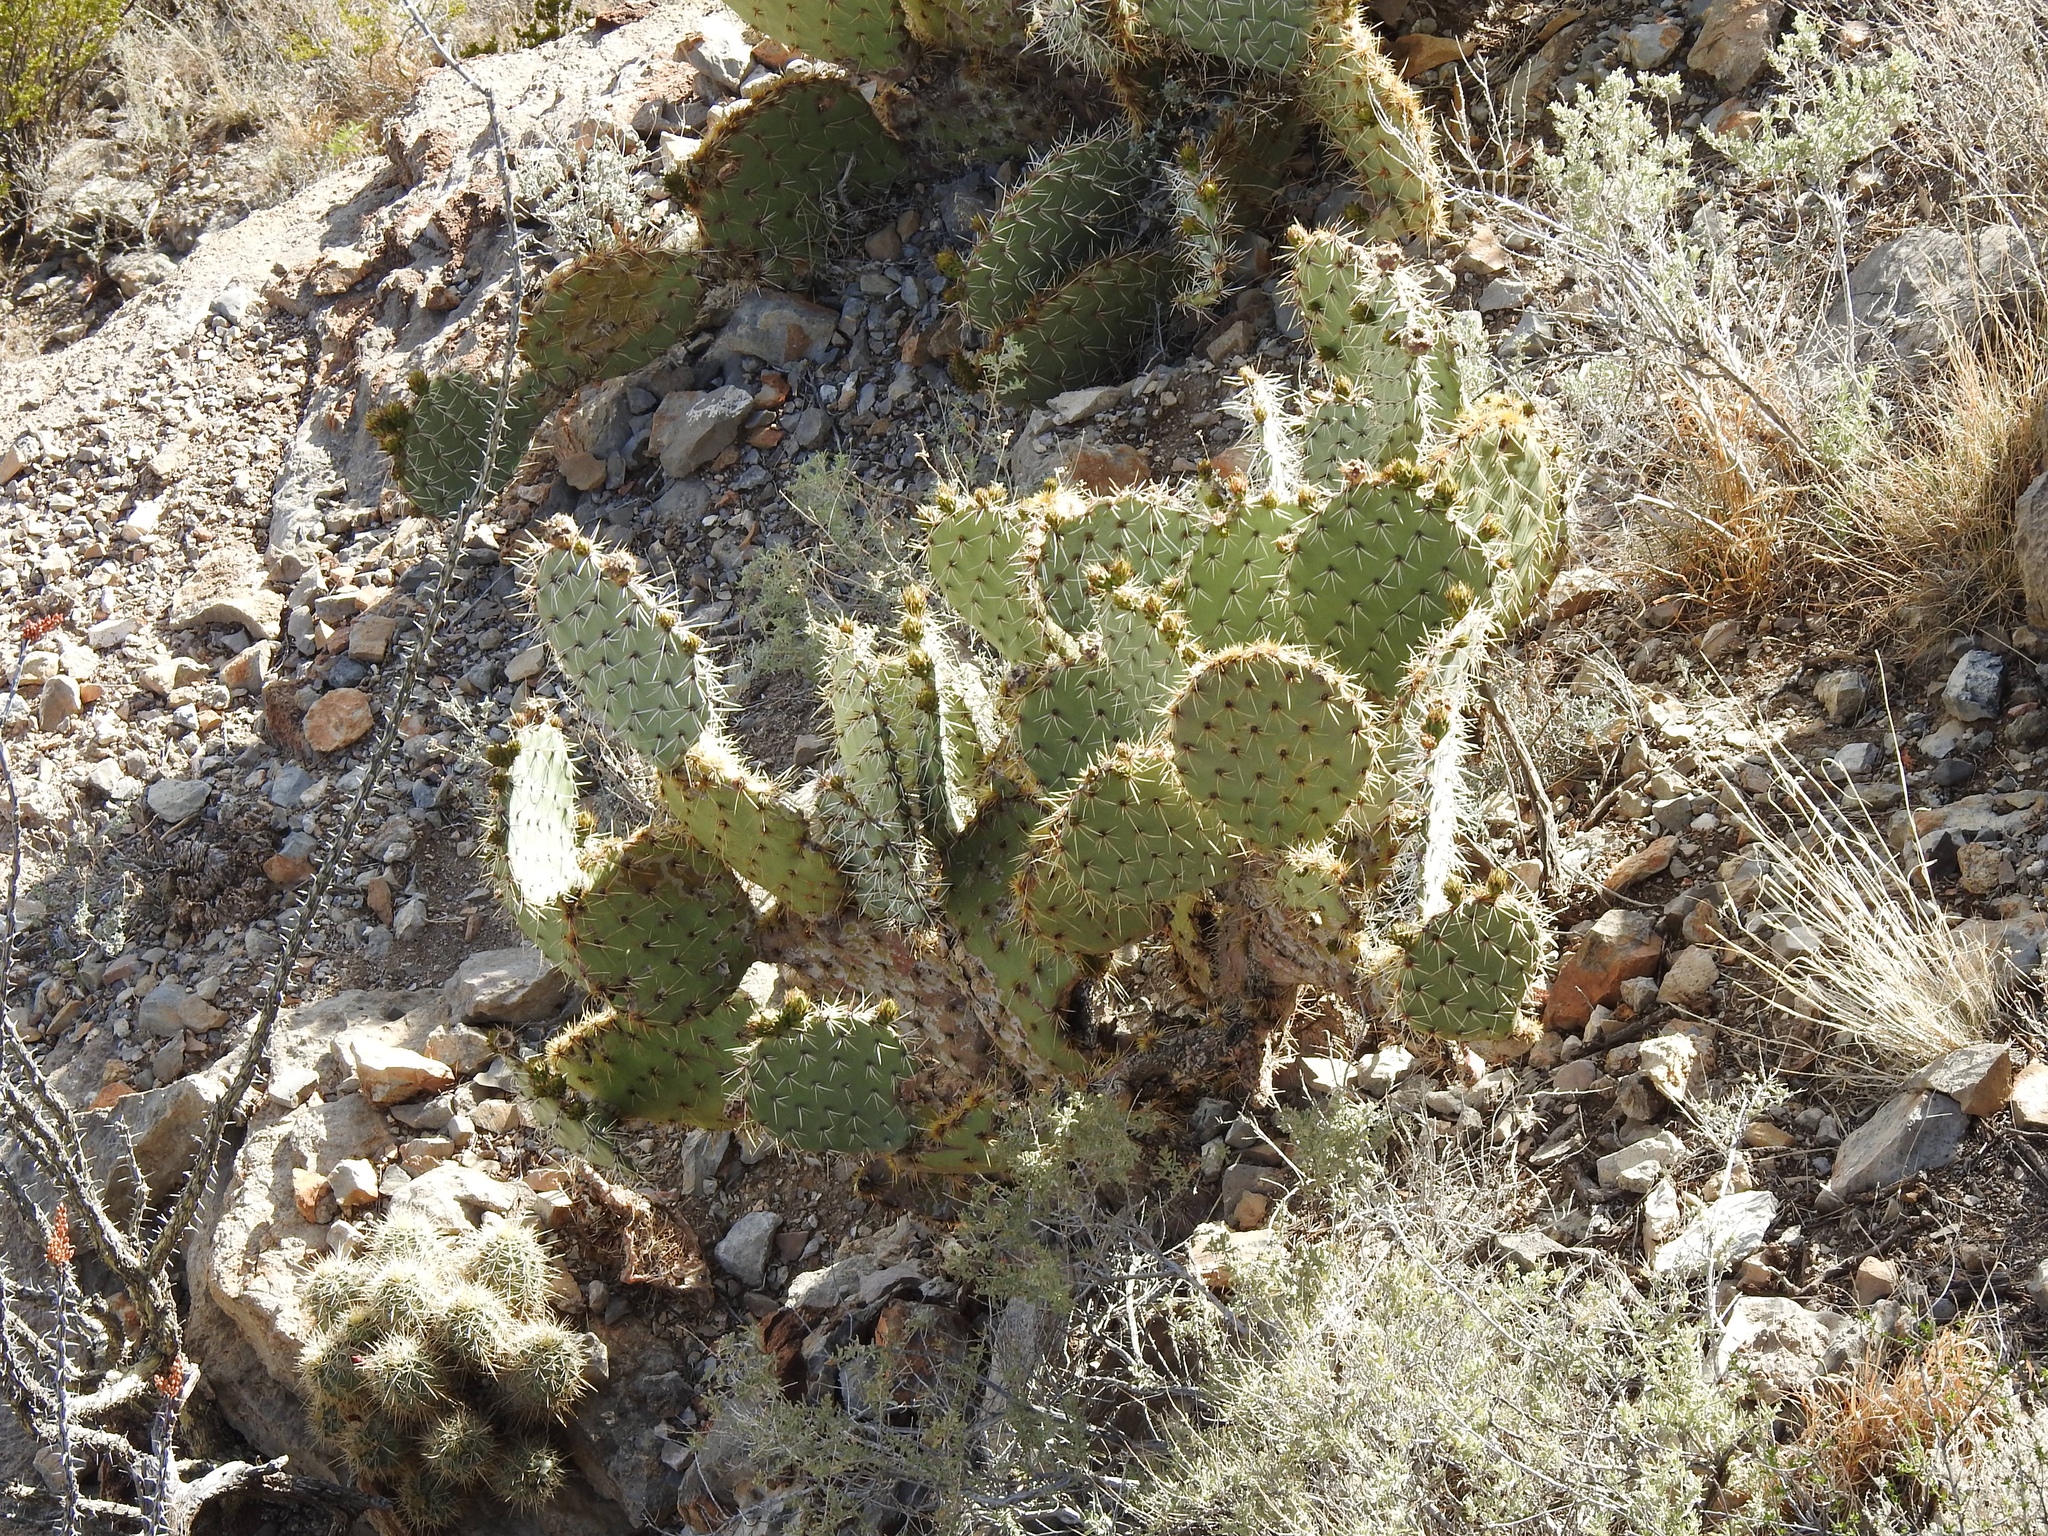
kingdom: Plantae
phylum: Tracheophyta
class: Magnoliopsida
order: Caryophyllales
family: Cactaceae
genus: Opuntia
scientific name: Opuntia phaeacantha
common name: New mexico prickly-pear
